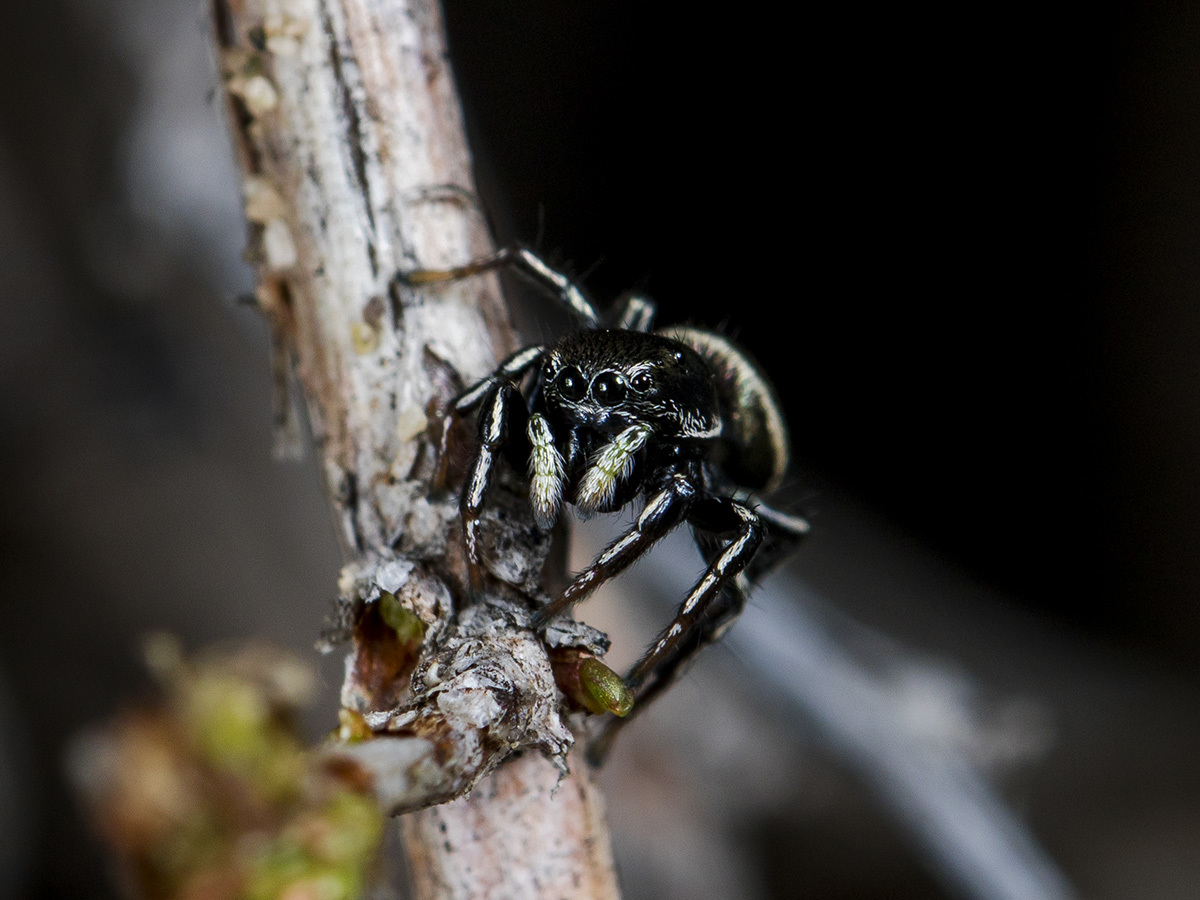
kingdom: Animalia
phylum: Arthropoda
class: Arachnida
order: Araneae
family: Salticidae
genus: Heliophanus
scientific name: Heliophanus chovdensis
